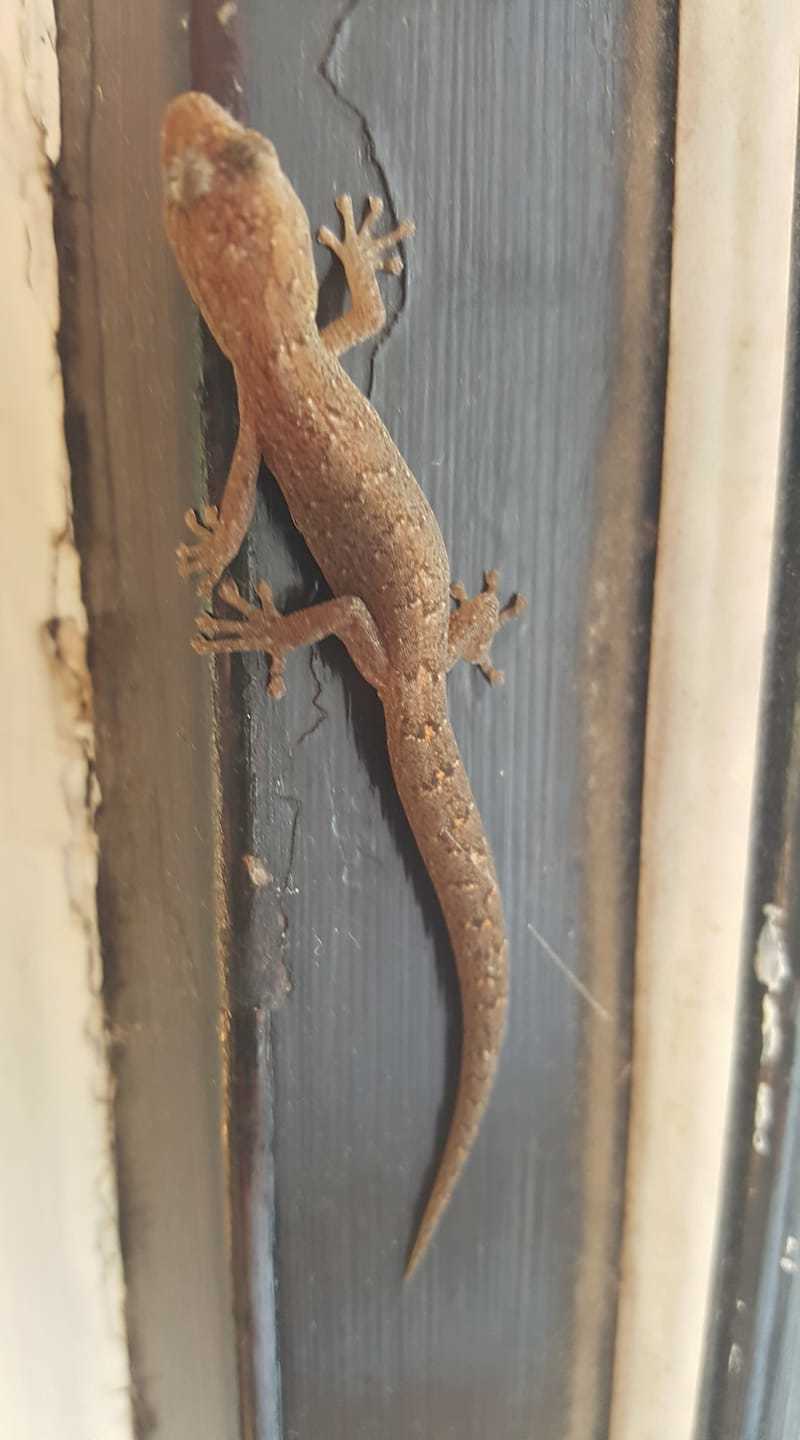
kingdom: Animalia
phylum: Chordata
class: Squamata
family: Gekkonidae
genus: Christinus
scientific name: Christinus marmoratus
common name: Marbled gecko
